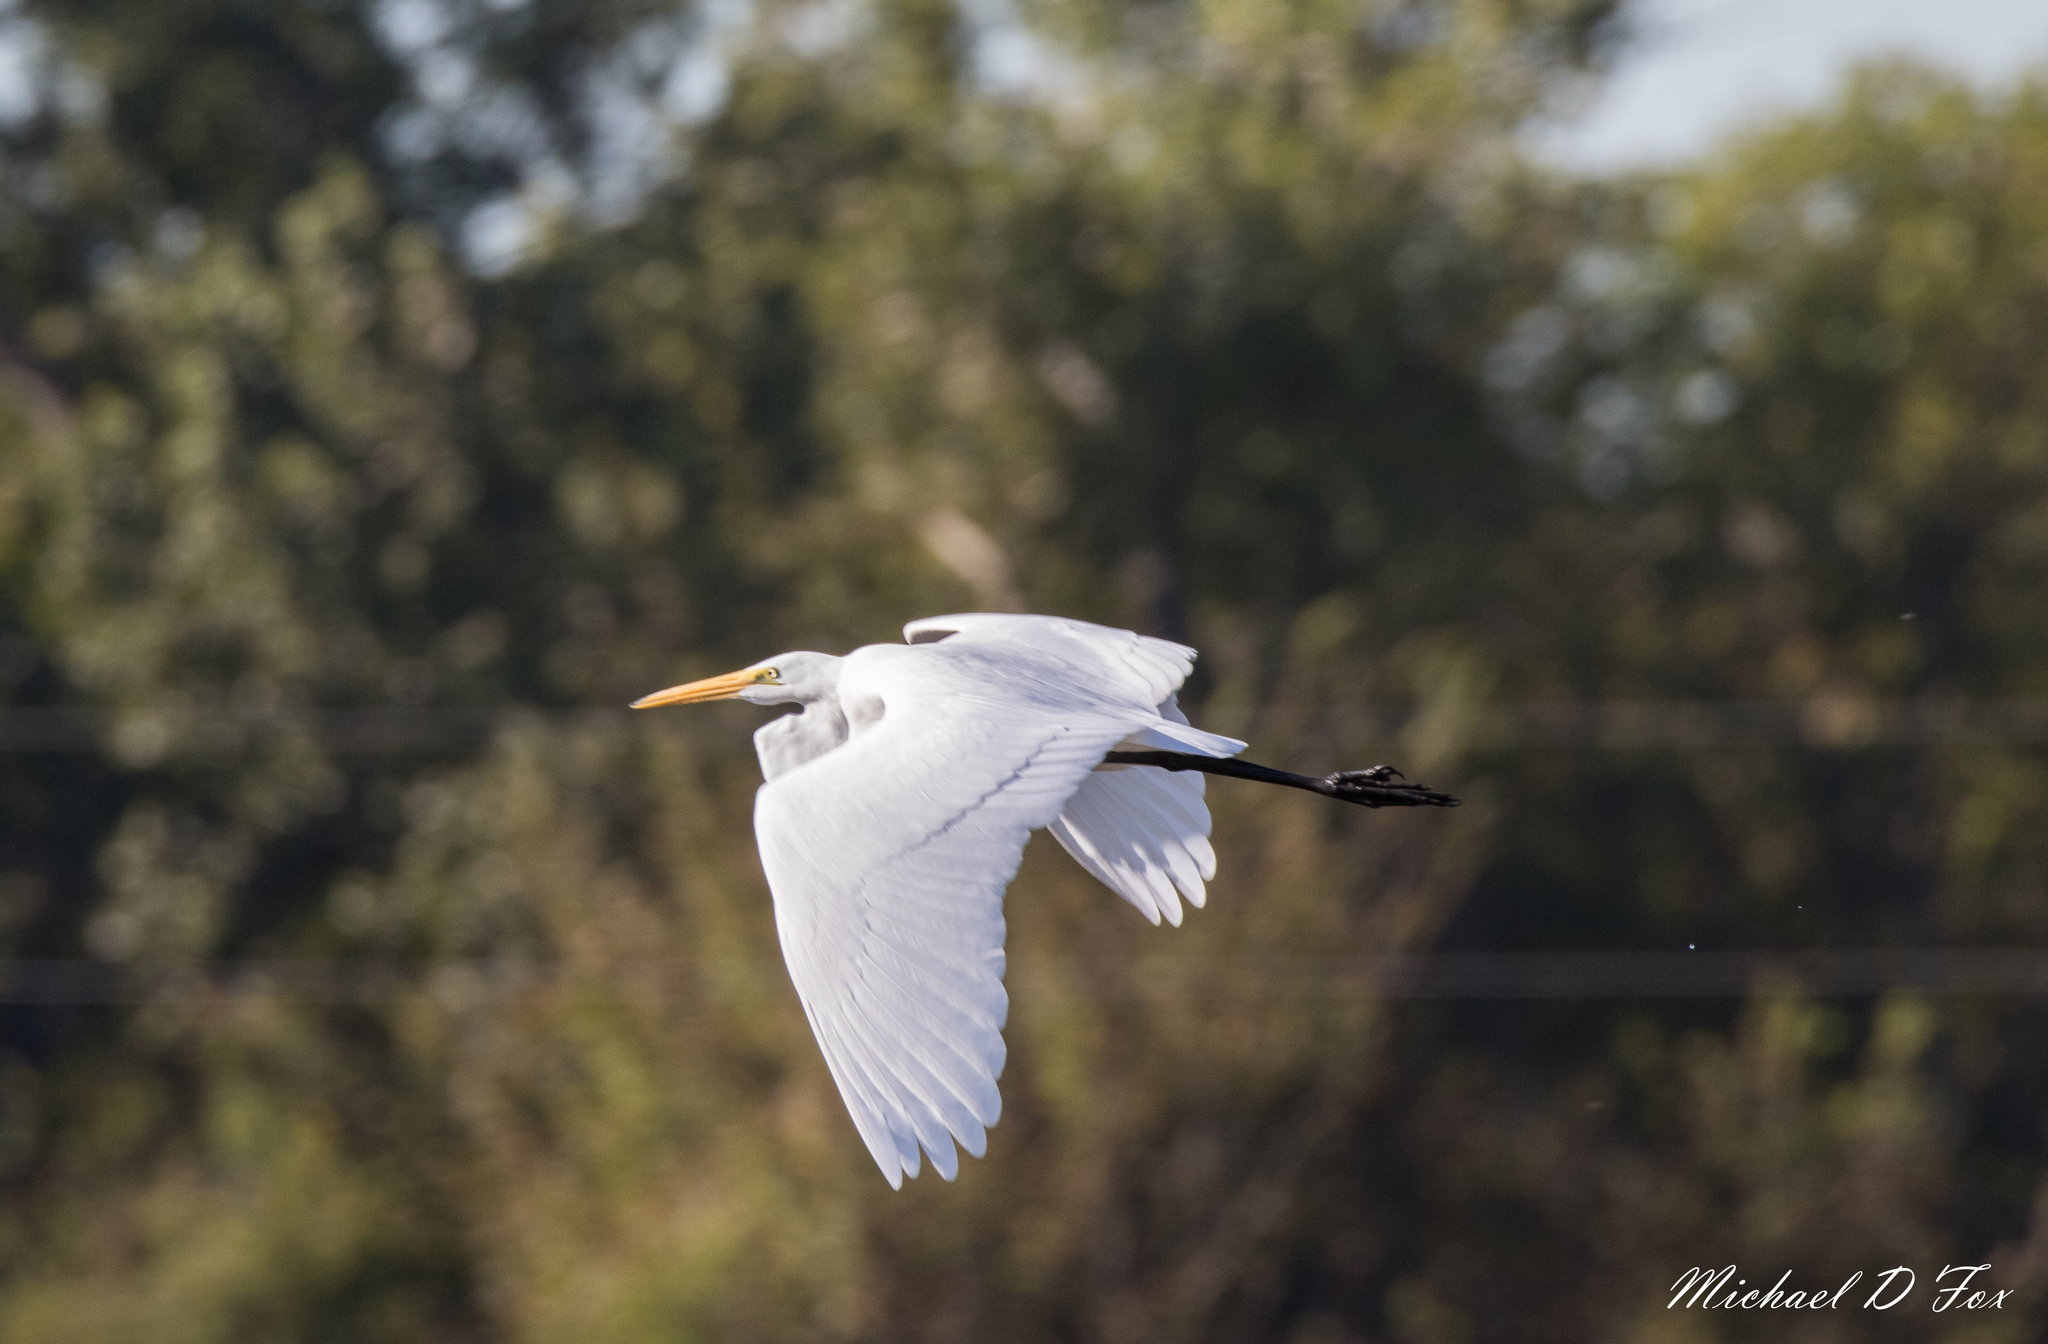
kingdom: Animalia
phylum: Chordata
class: Aves
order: Pelecaniformes
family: Ardeidae
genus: Ardea
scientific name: Ardea alba
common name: Great egret
